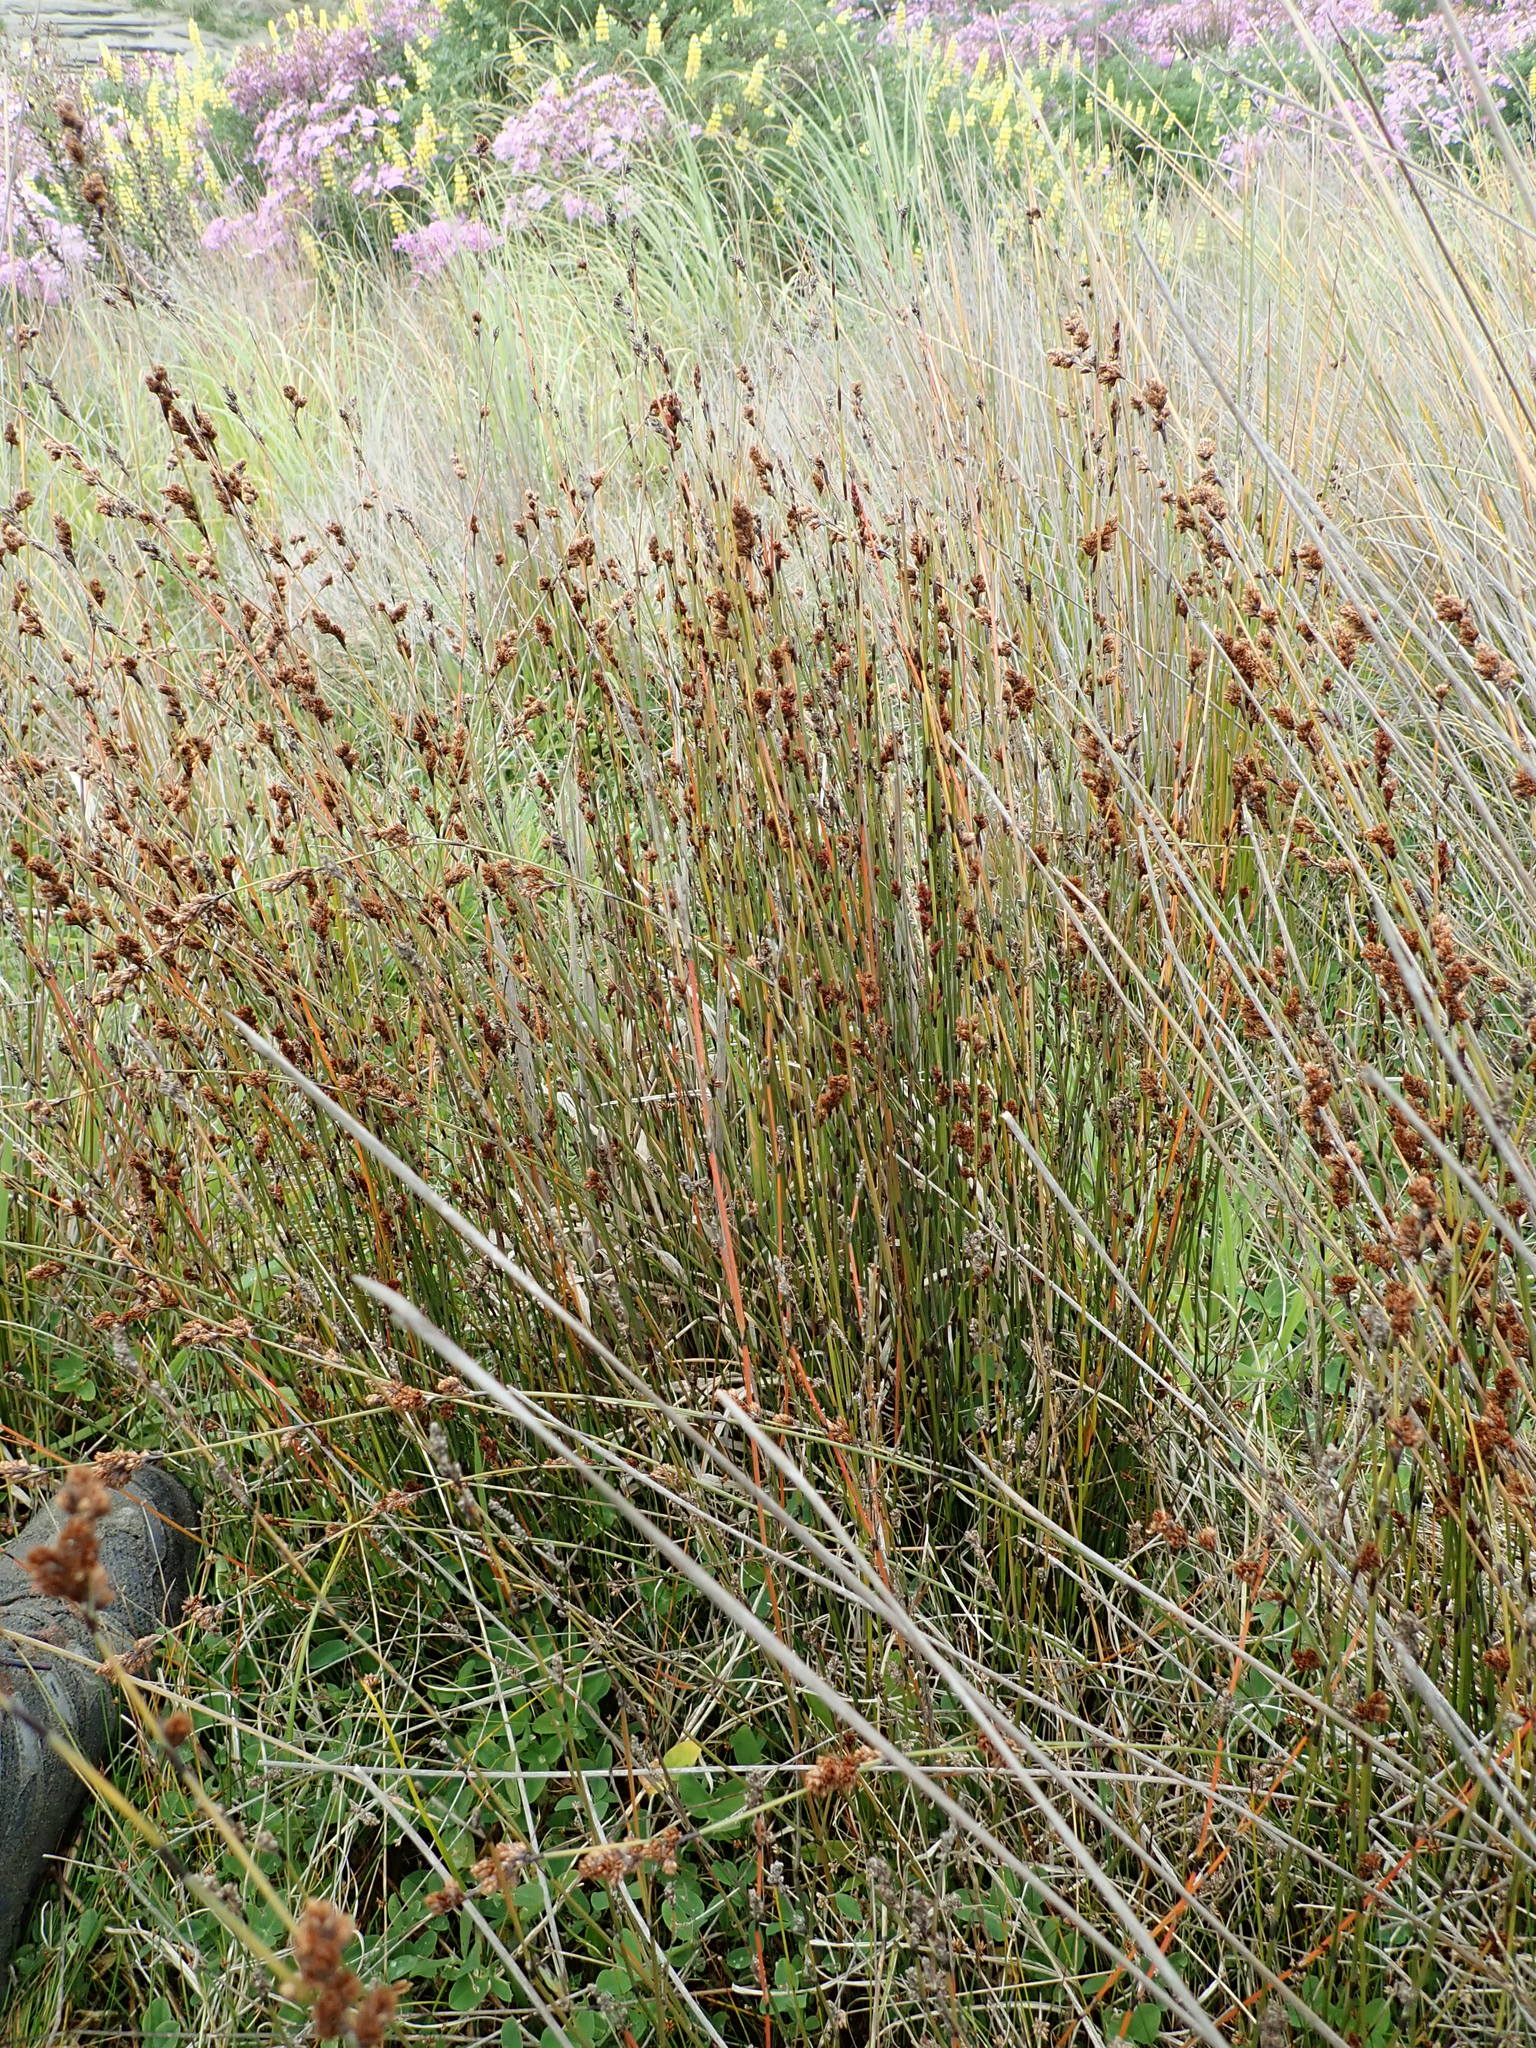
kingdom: Plantae
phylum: Tracheophyta
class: Liliopsida
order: Poales
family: Restionaceae
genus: Apodasmia
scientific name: Apodasmia similis
